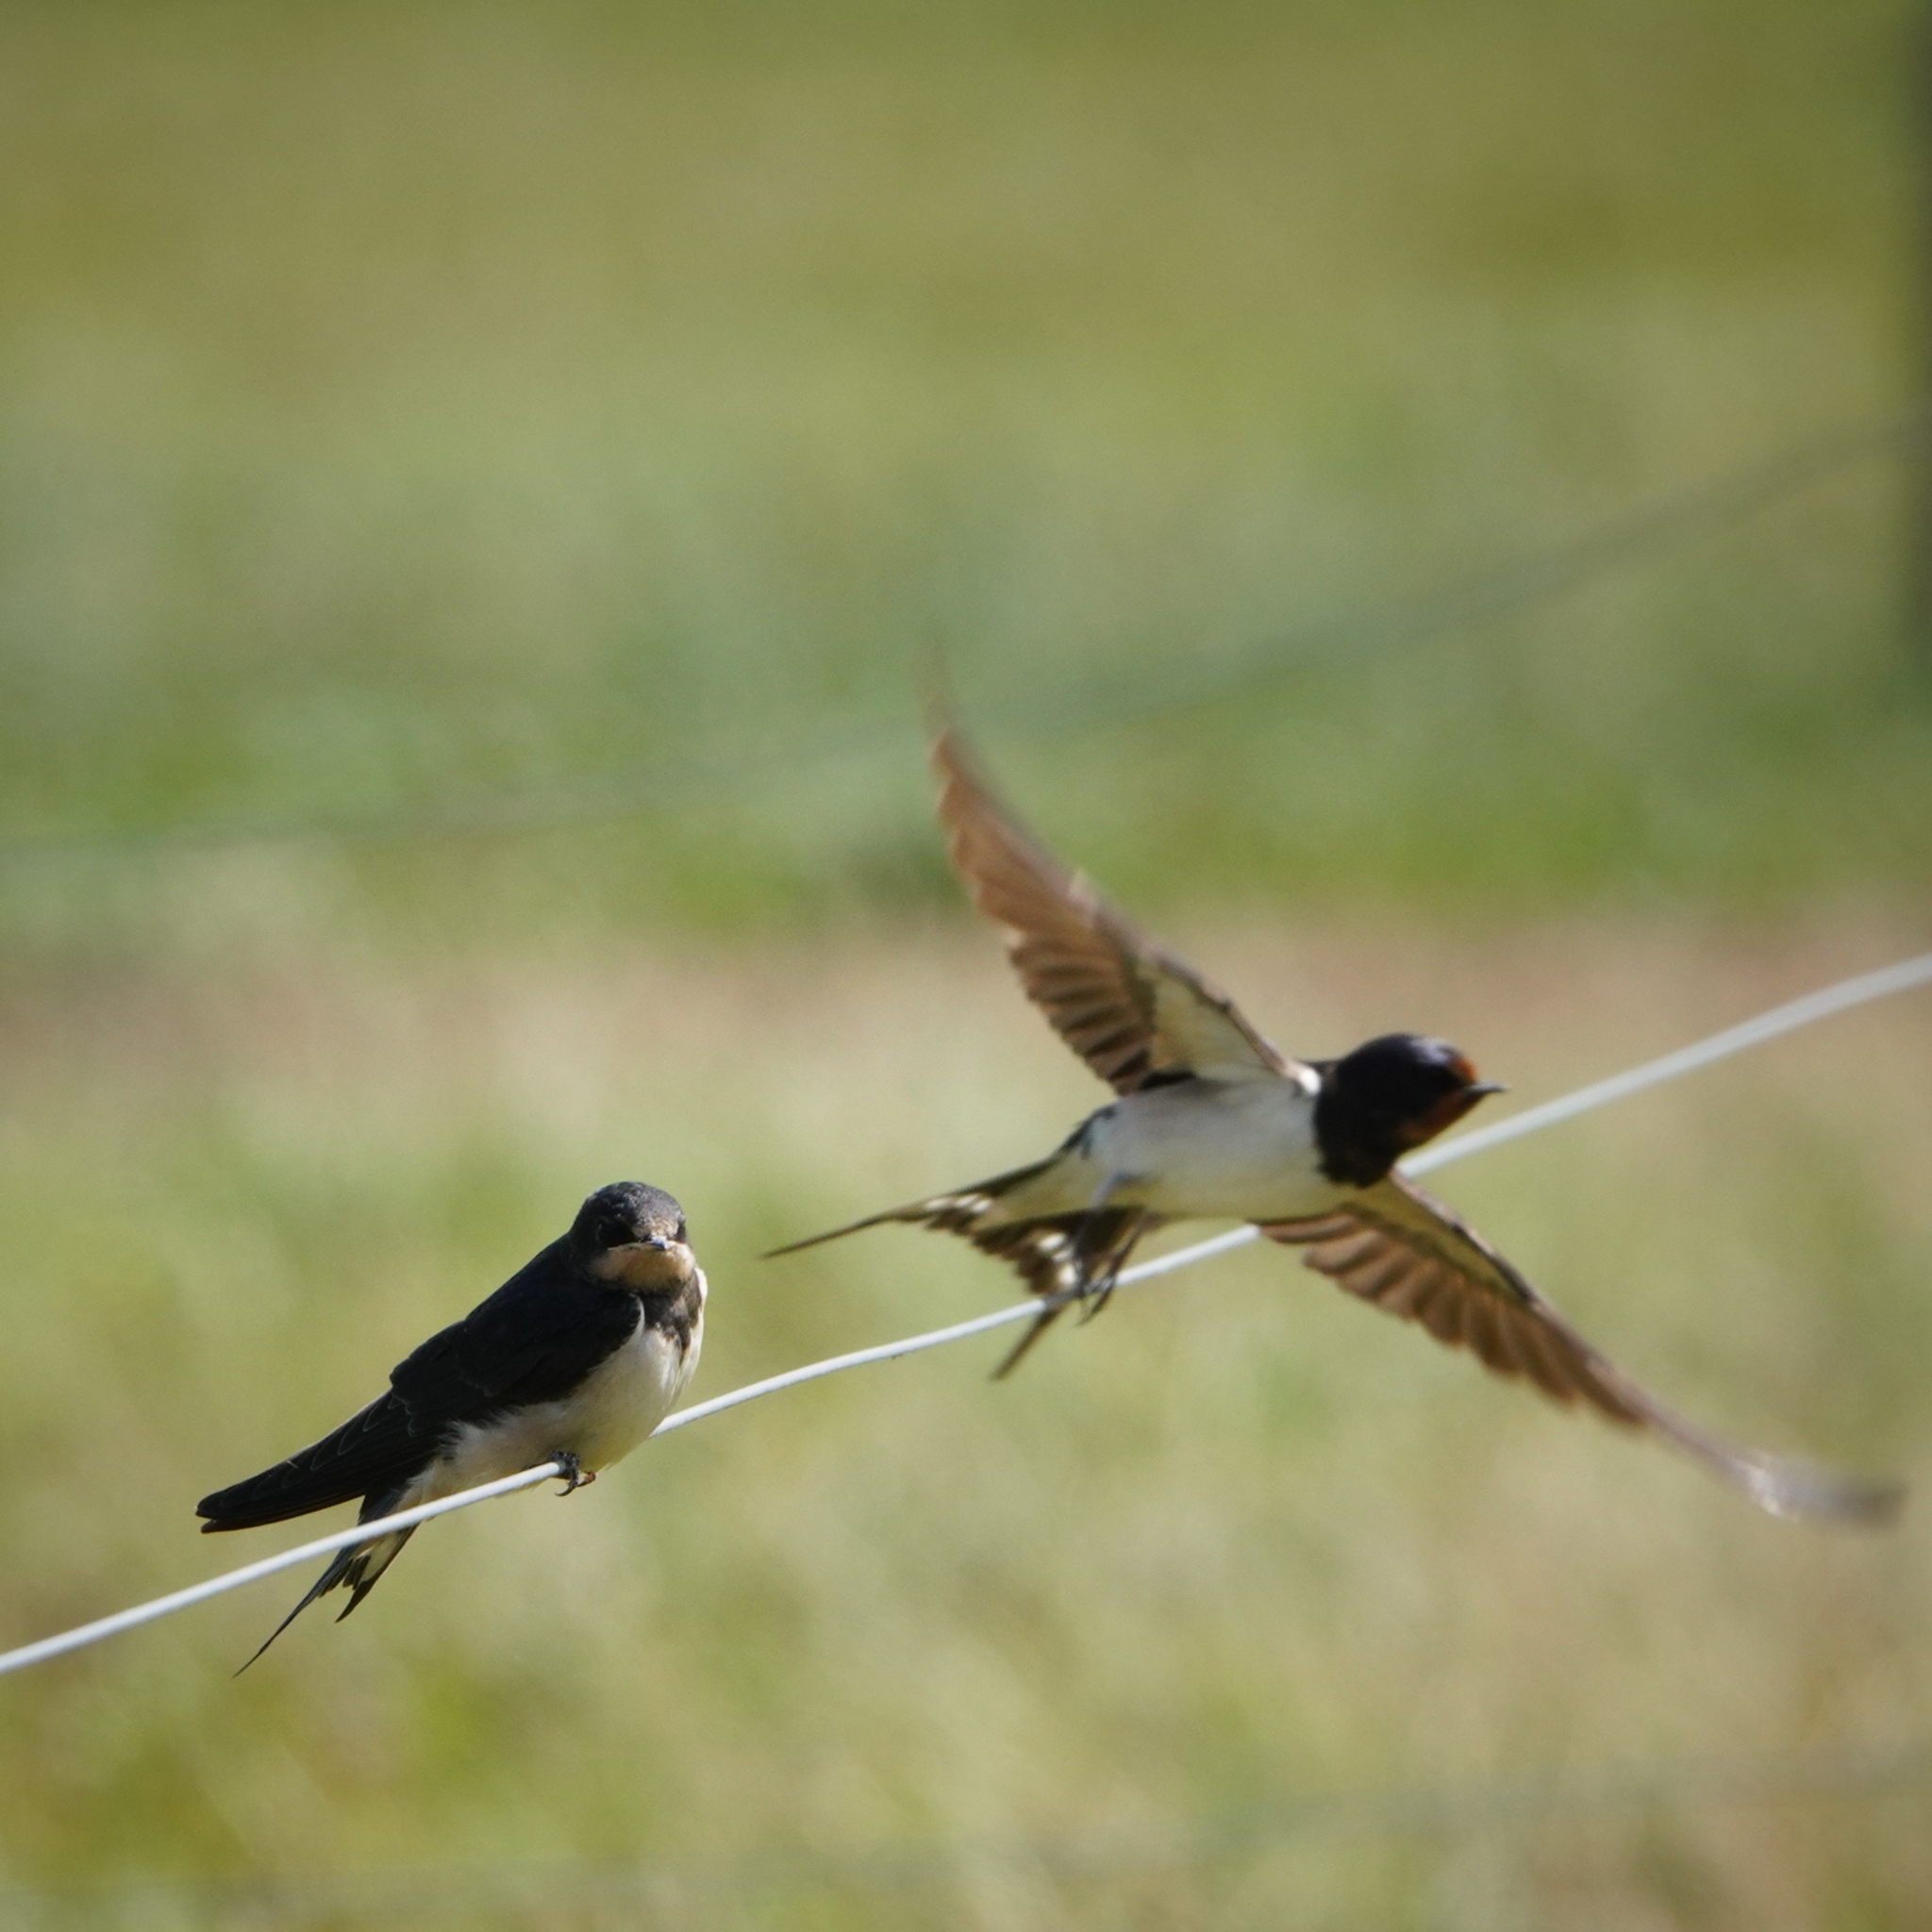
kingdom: Animalia
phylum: Chordata
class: Aves
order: Passeriformes
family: Hirundinidae
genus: Hirundo
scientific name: Hirundo rustica
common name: Barn swallow
